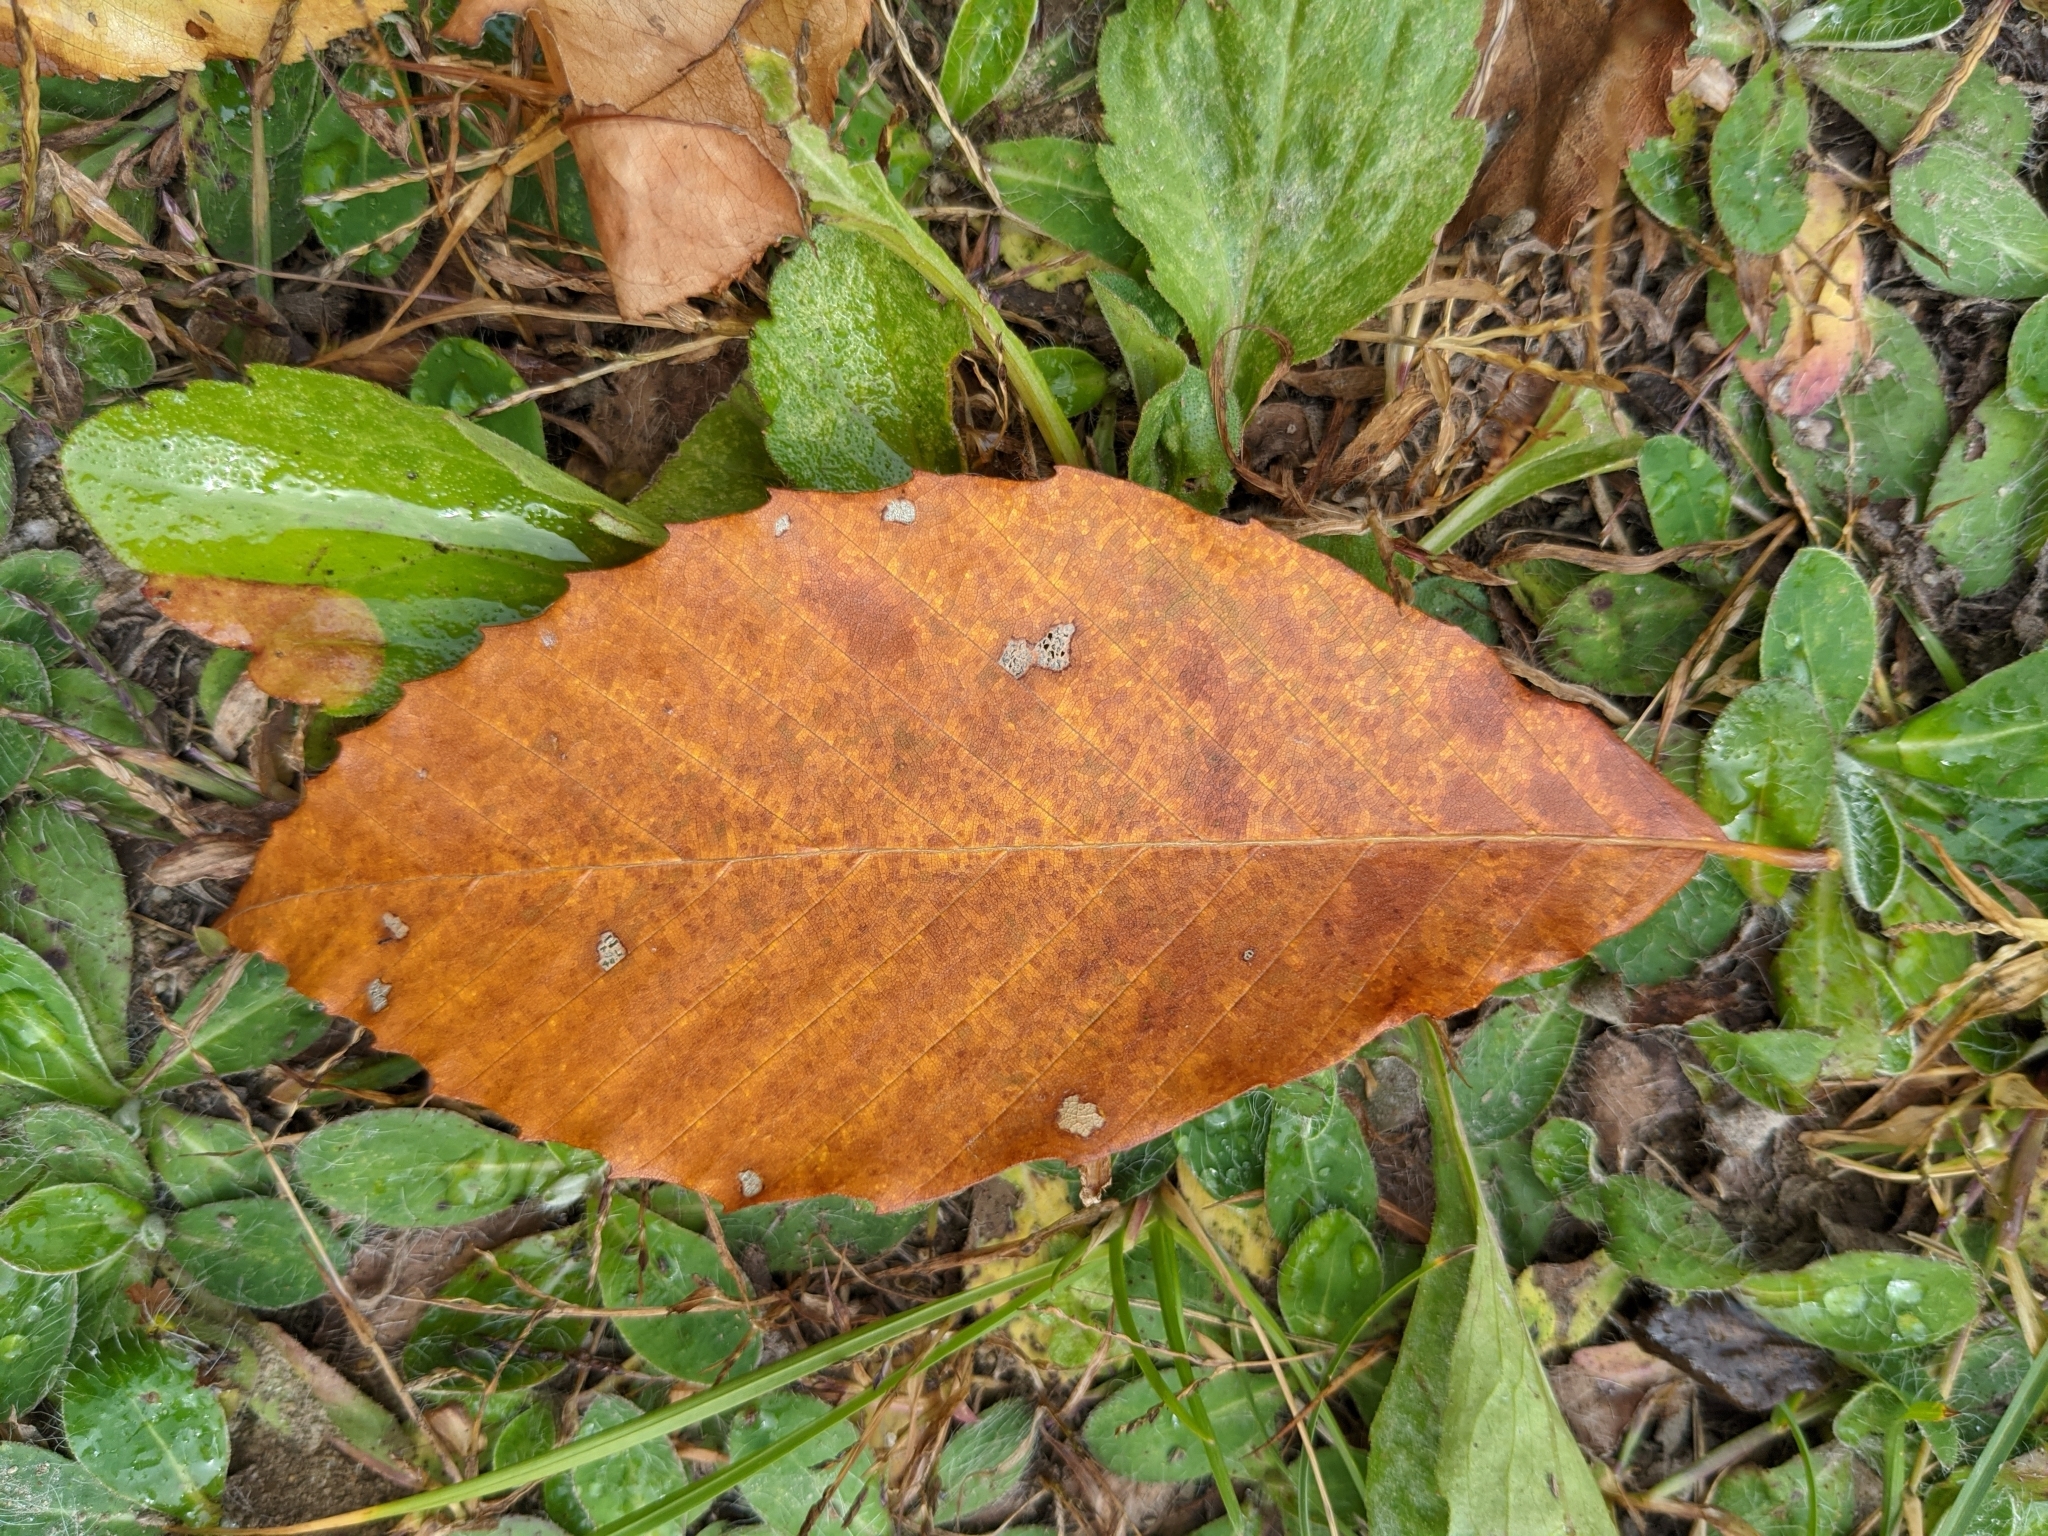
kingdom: Plantae
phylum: Tracheophyta
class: Magnoliopsida
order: Fagales
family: Fagaceae
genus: Fagus
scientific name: Fagus grandifolia
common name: American beech
